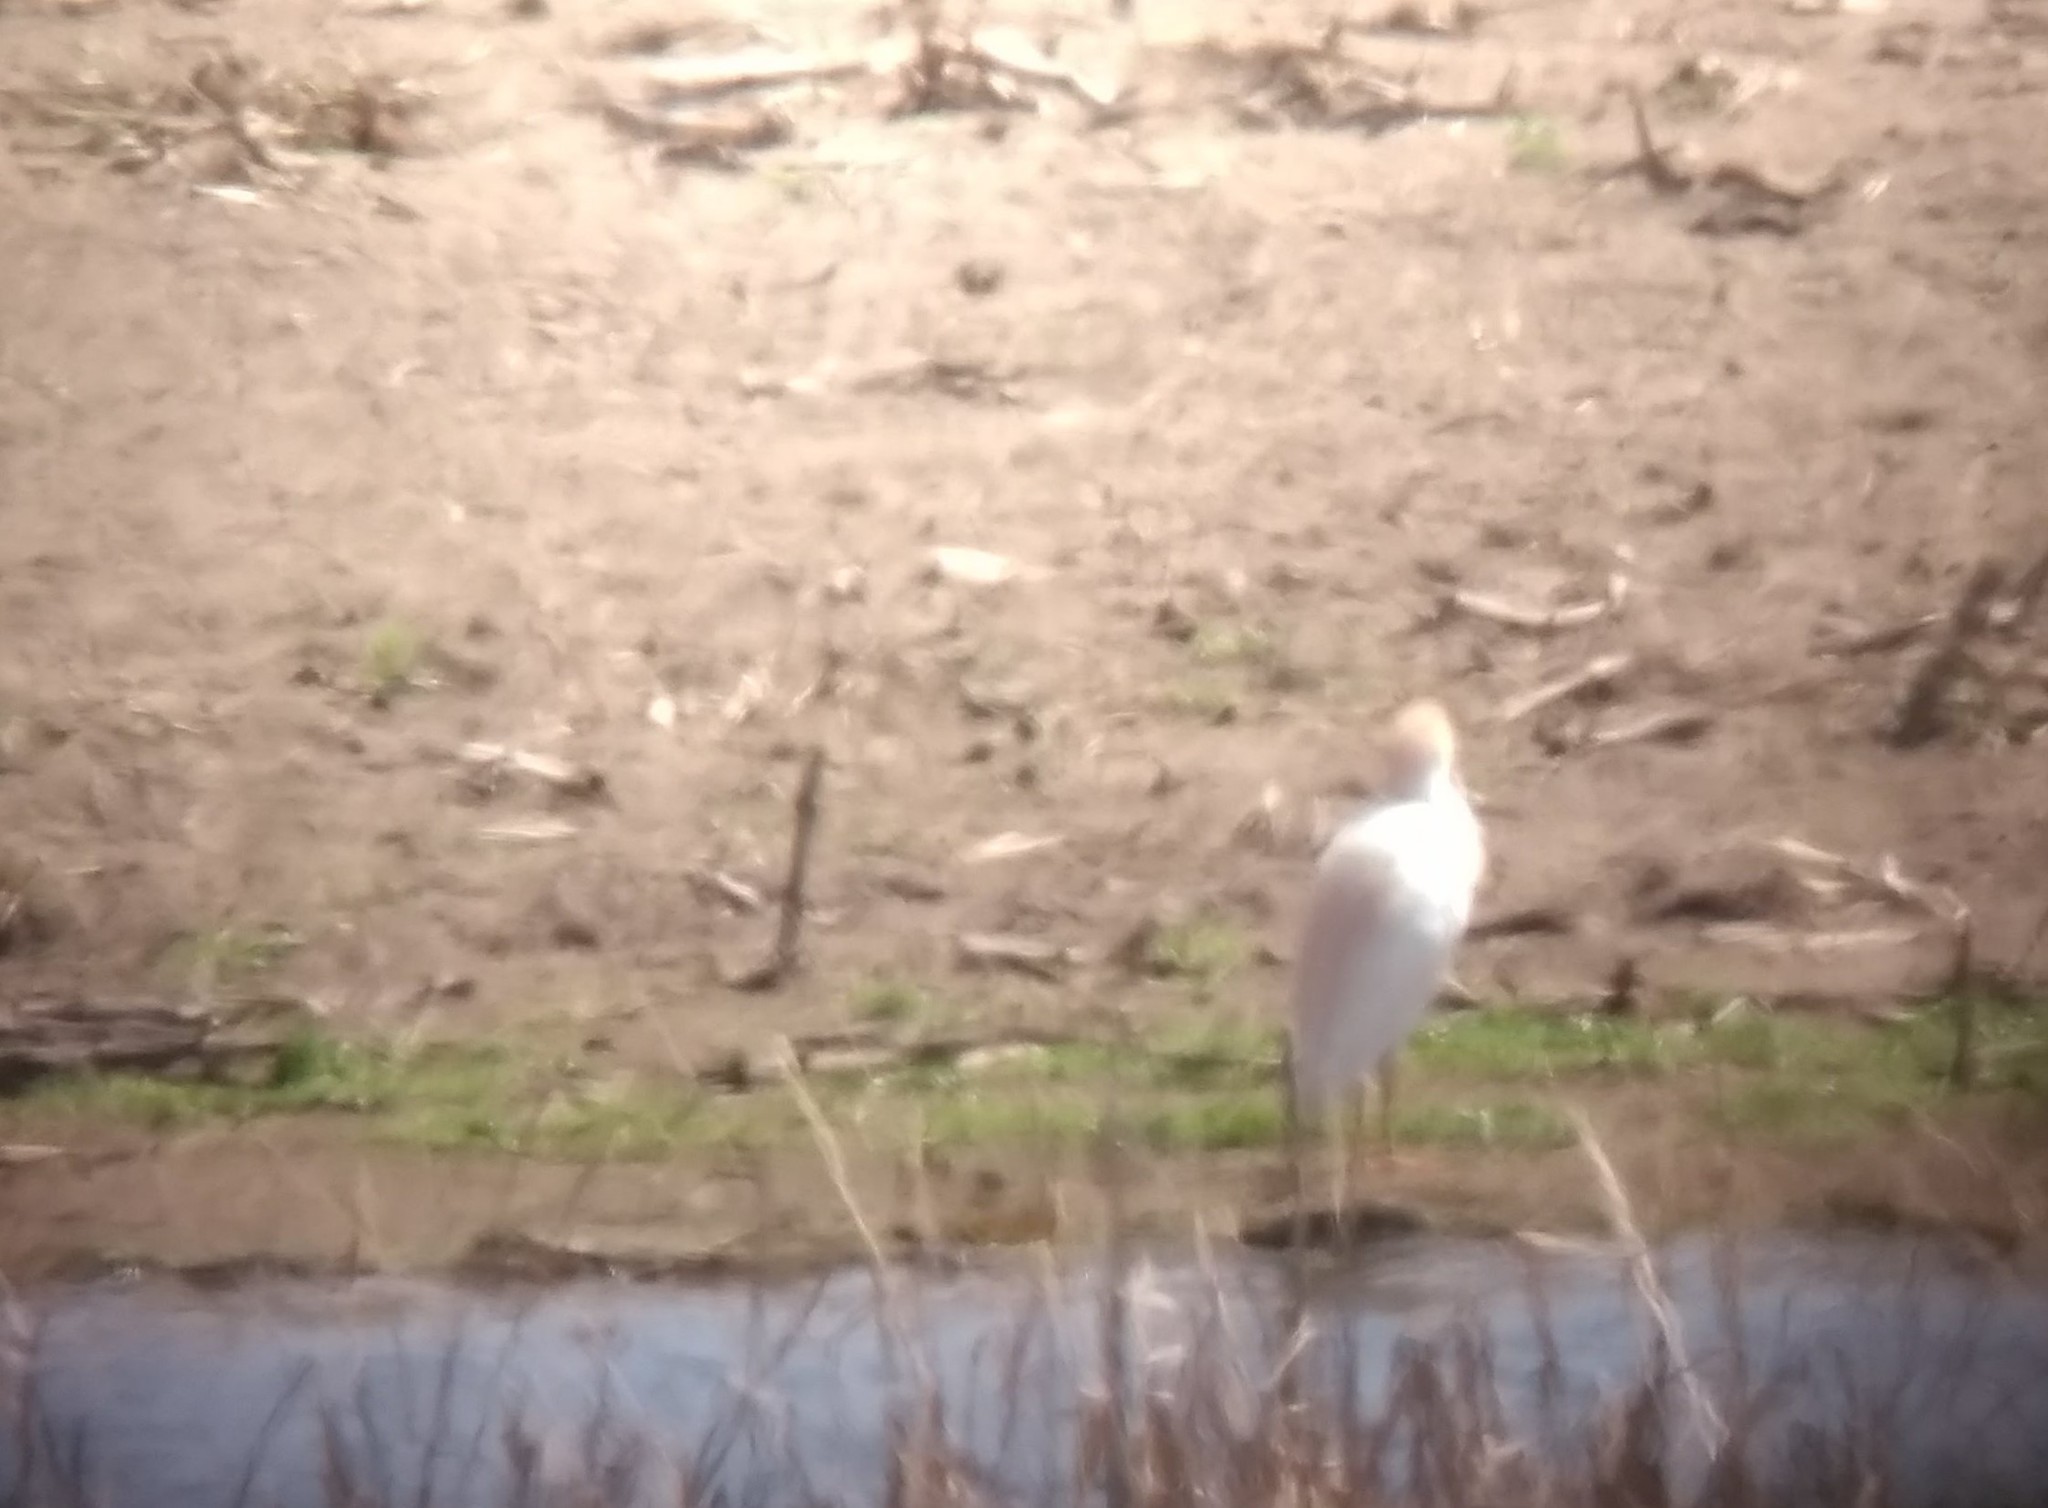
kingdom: Animalia
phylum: Chordata
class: Aves
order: Pelecaniformes
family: Ardeidae
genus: Bubulcus
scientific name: Bubulcus ibis
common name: Cattle egret
